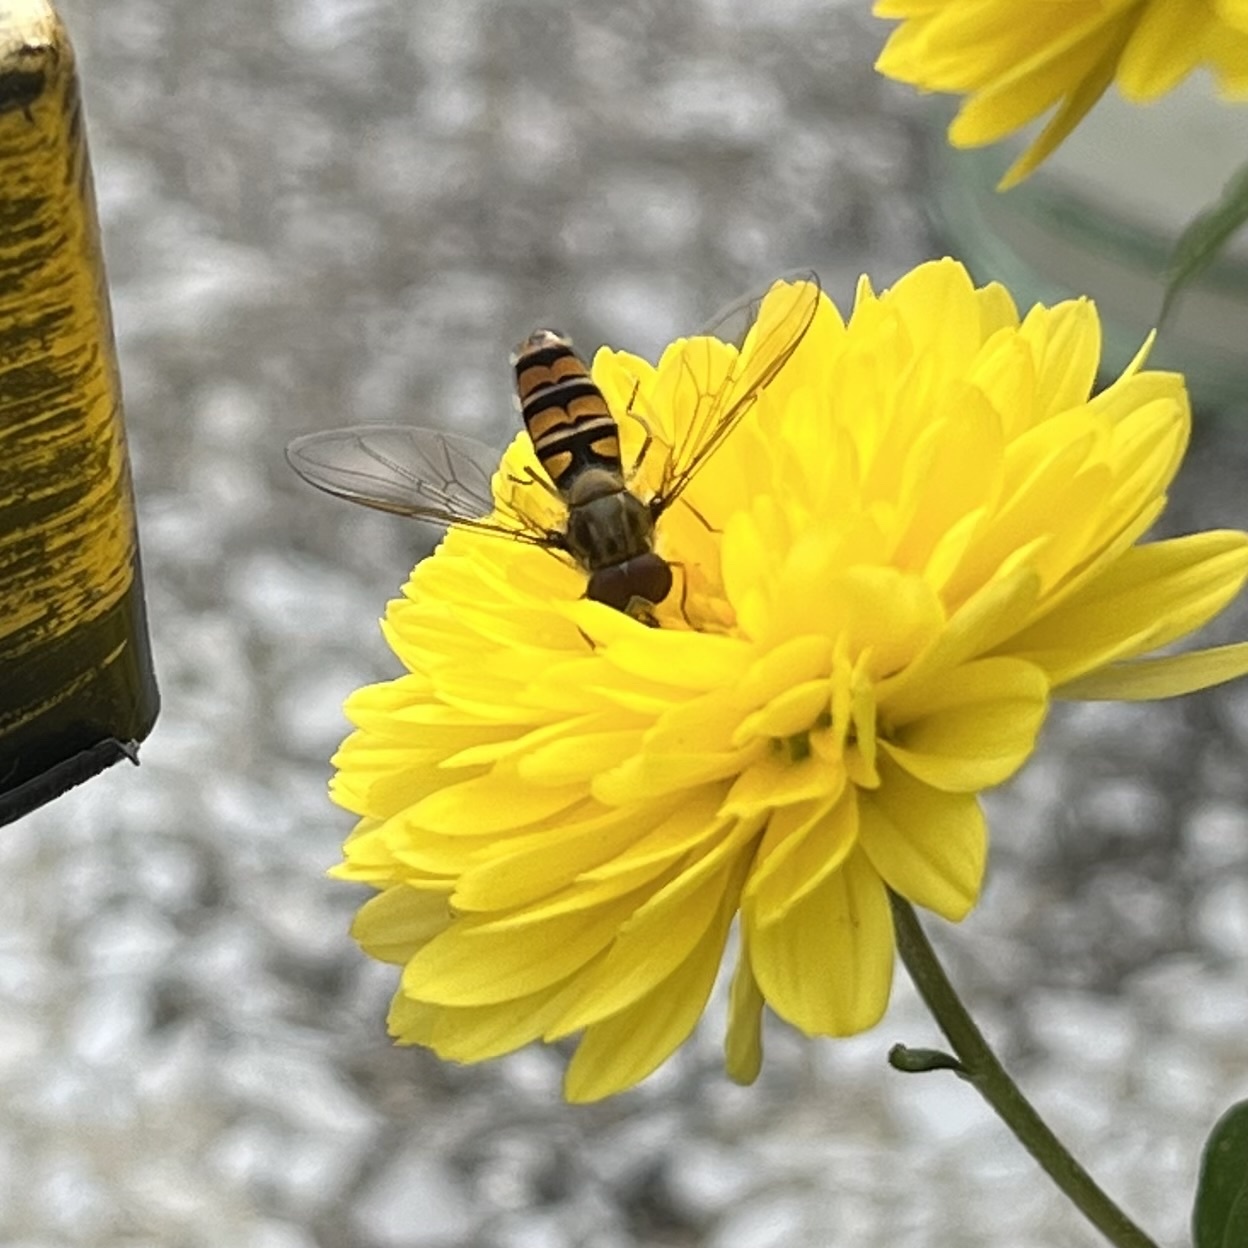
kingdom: Animalia
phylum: Arthropoda
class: Insecta
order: Diptera
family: Syrphidae
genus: Episyrphus
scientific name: Episyrphus balteatus
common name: Marmalade hoverfly
